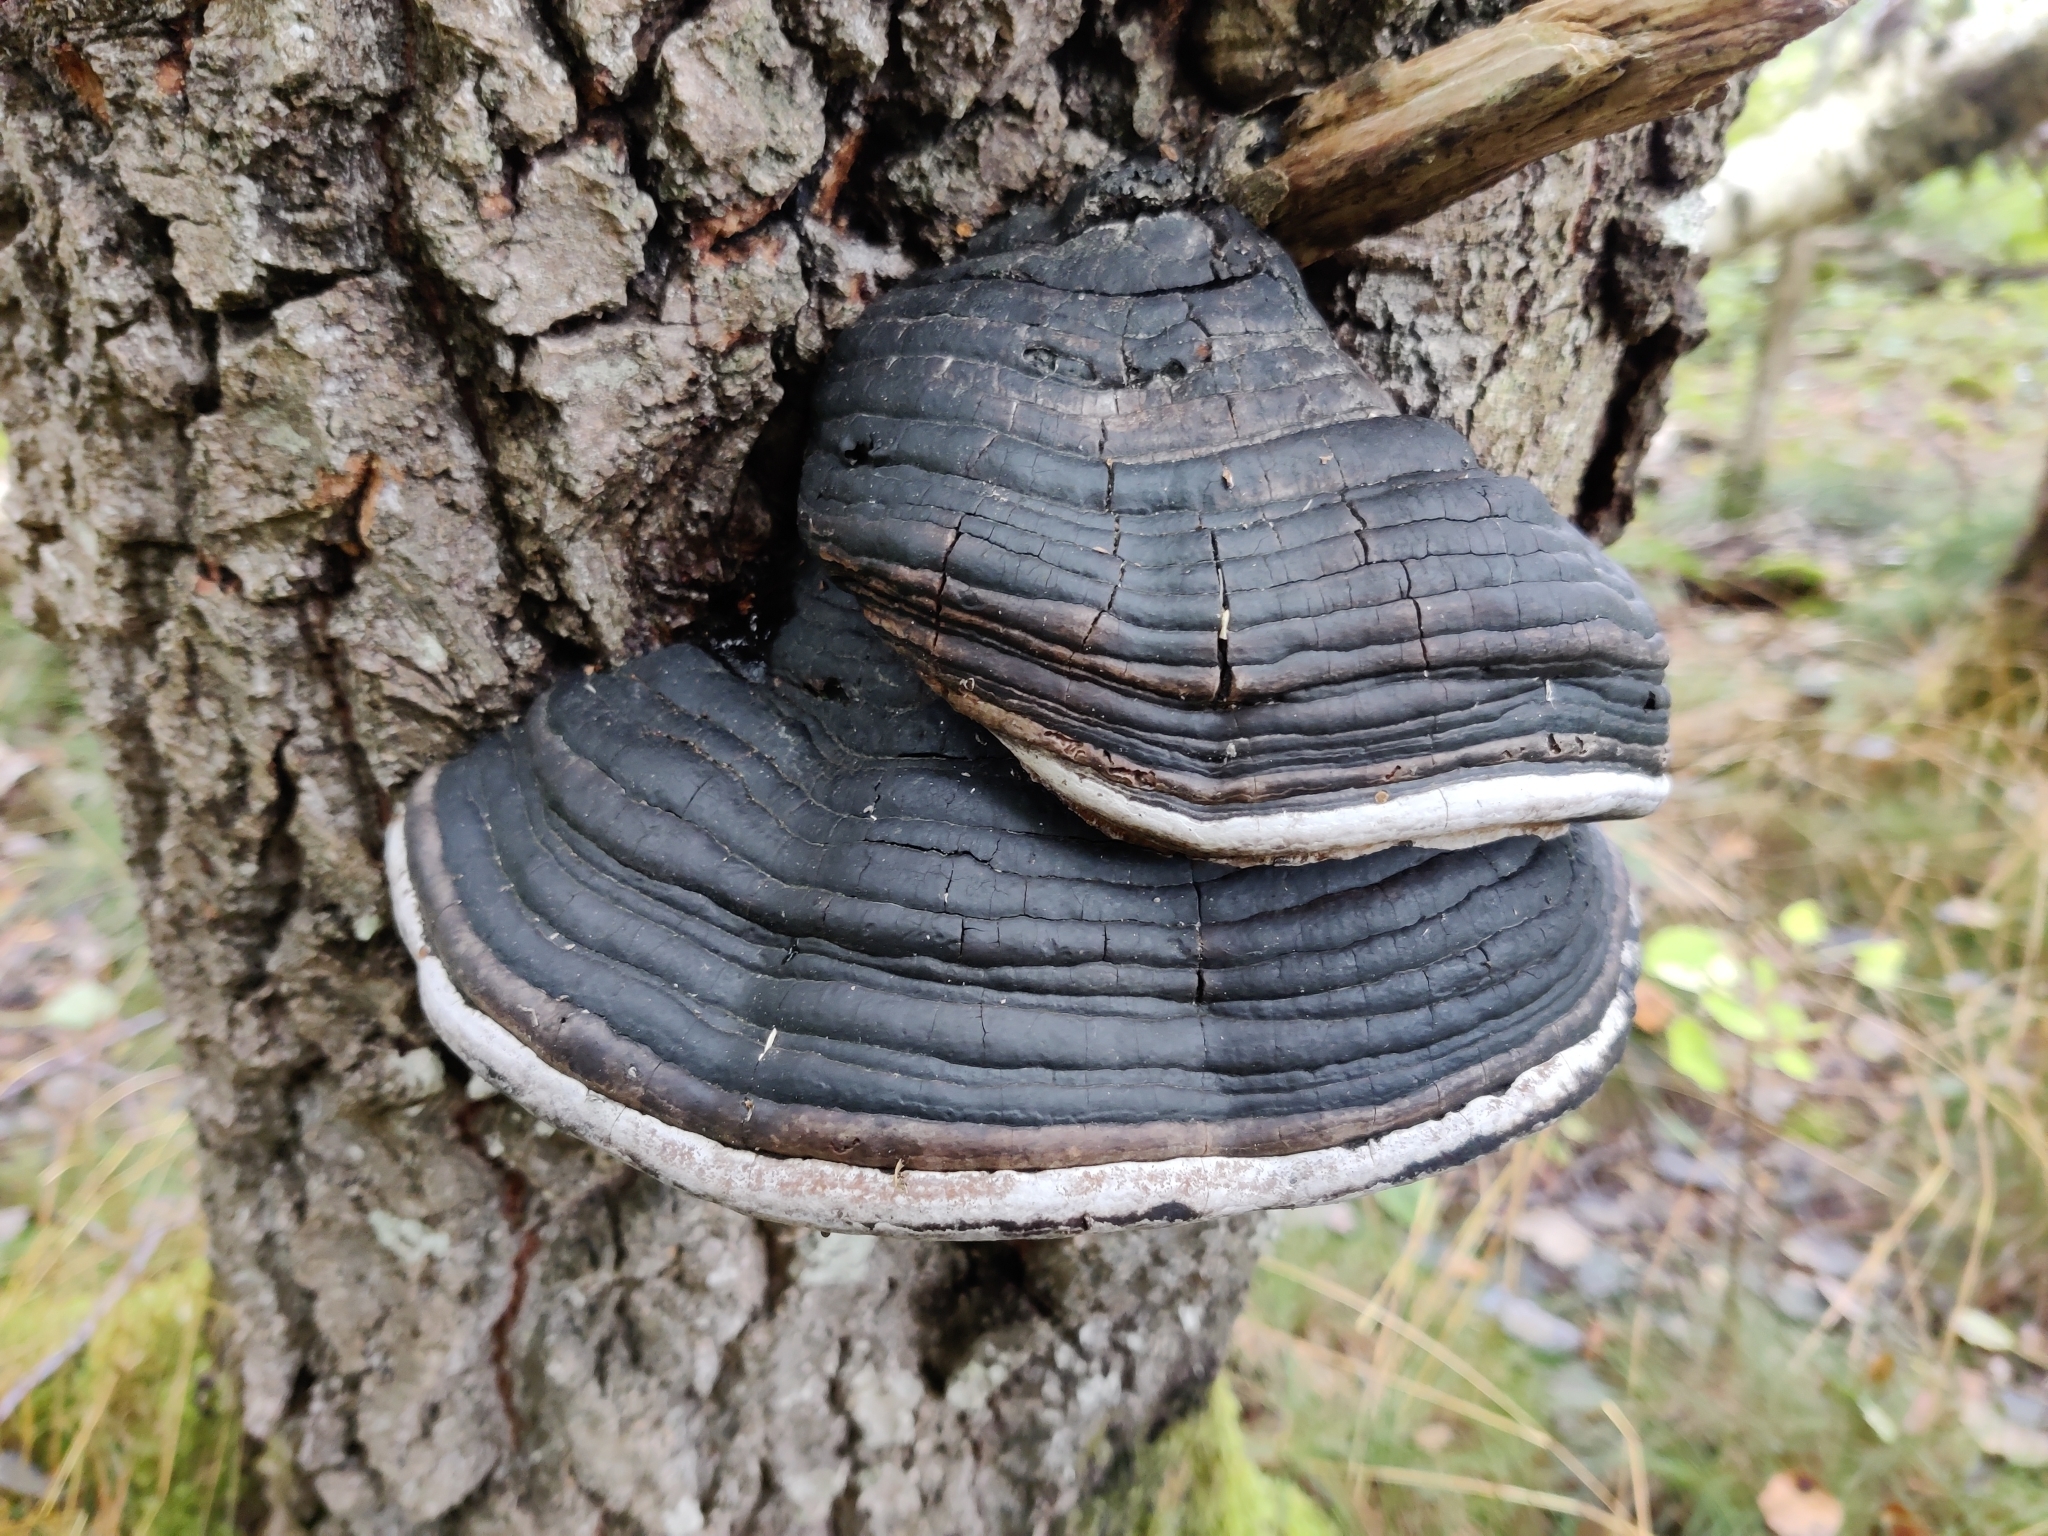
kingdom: Fungi
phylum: Basidiomycota
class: Agaricomycetes
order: Hymenochaetales
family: Hymenochaetaceae
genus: Phellinus
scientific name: Phellinus populicola
